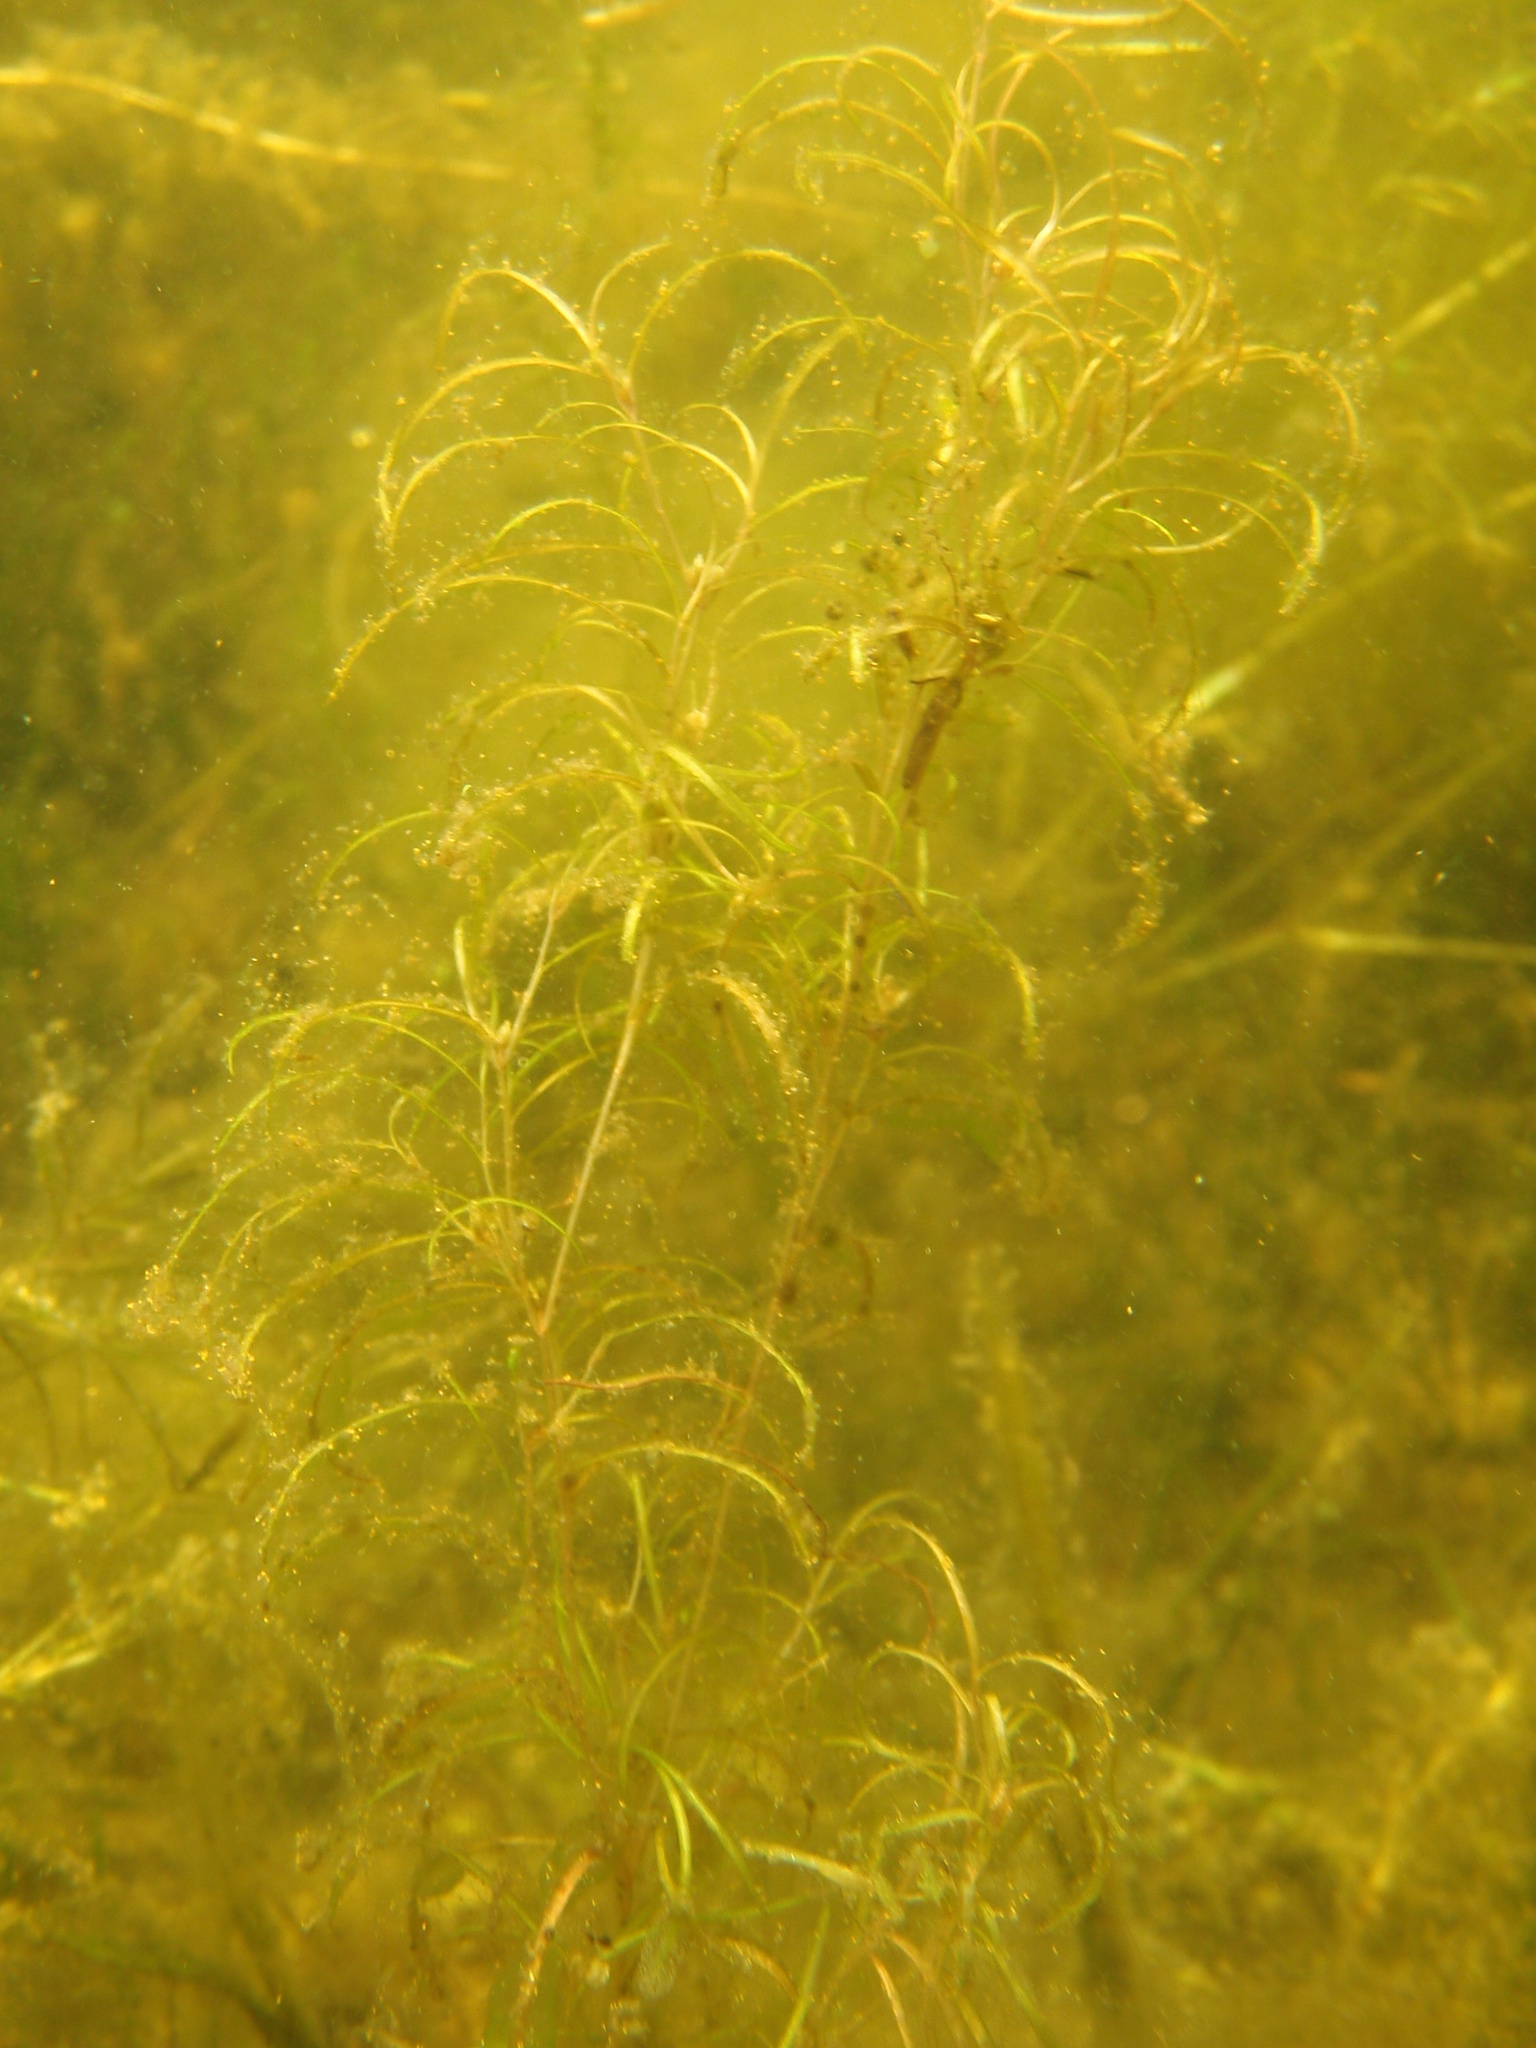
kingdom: Plantae
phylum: Tracheophyta
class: Liliopsida
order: Alismatales
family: Potamogetonaceae
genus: Potamogeton
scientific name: Potamogeton spirillus
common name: Northern snail-seed pondweed
